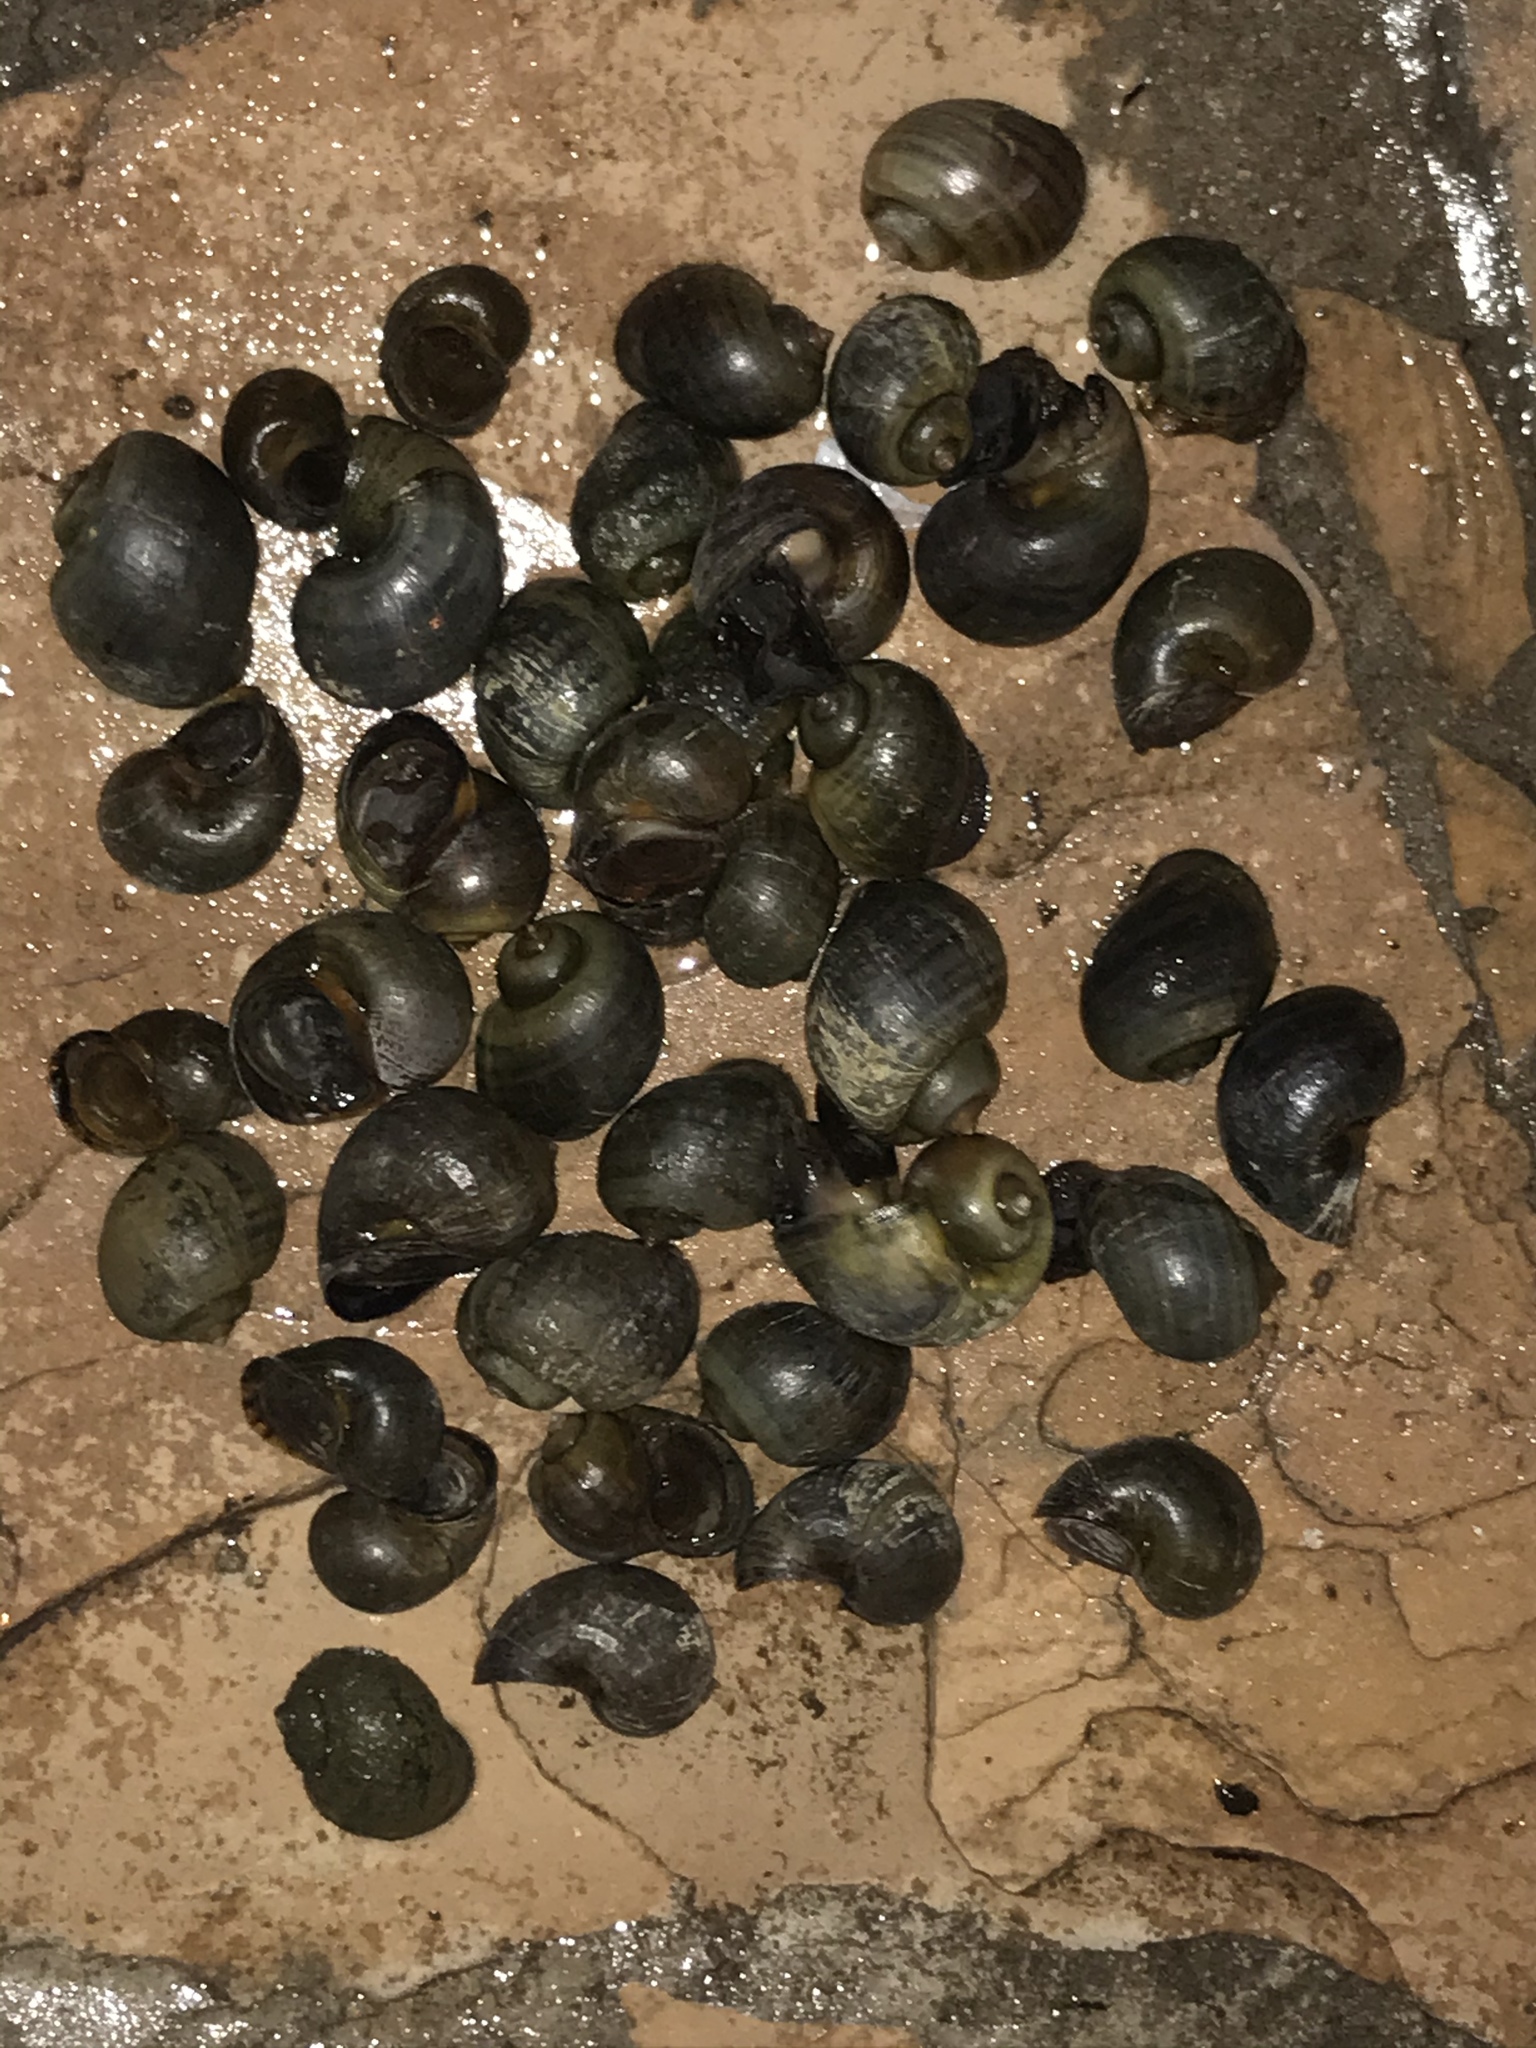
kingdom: Animalia
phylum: Mollusca
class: Gastropoda
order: Architaenioglossa
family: Ampullariidae
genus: Pomacea
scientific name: Pomacea canaliculata
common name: Channeled applesnail
